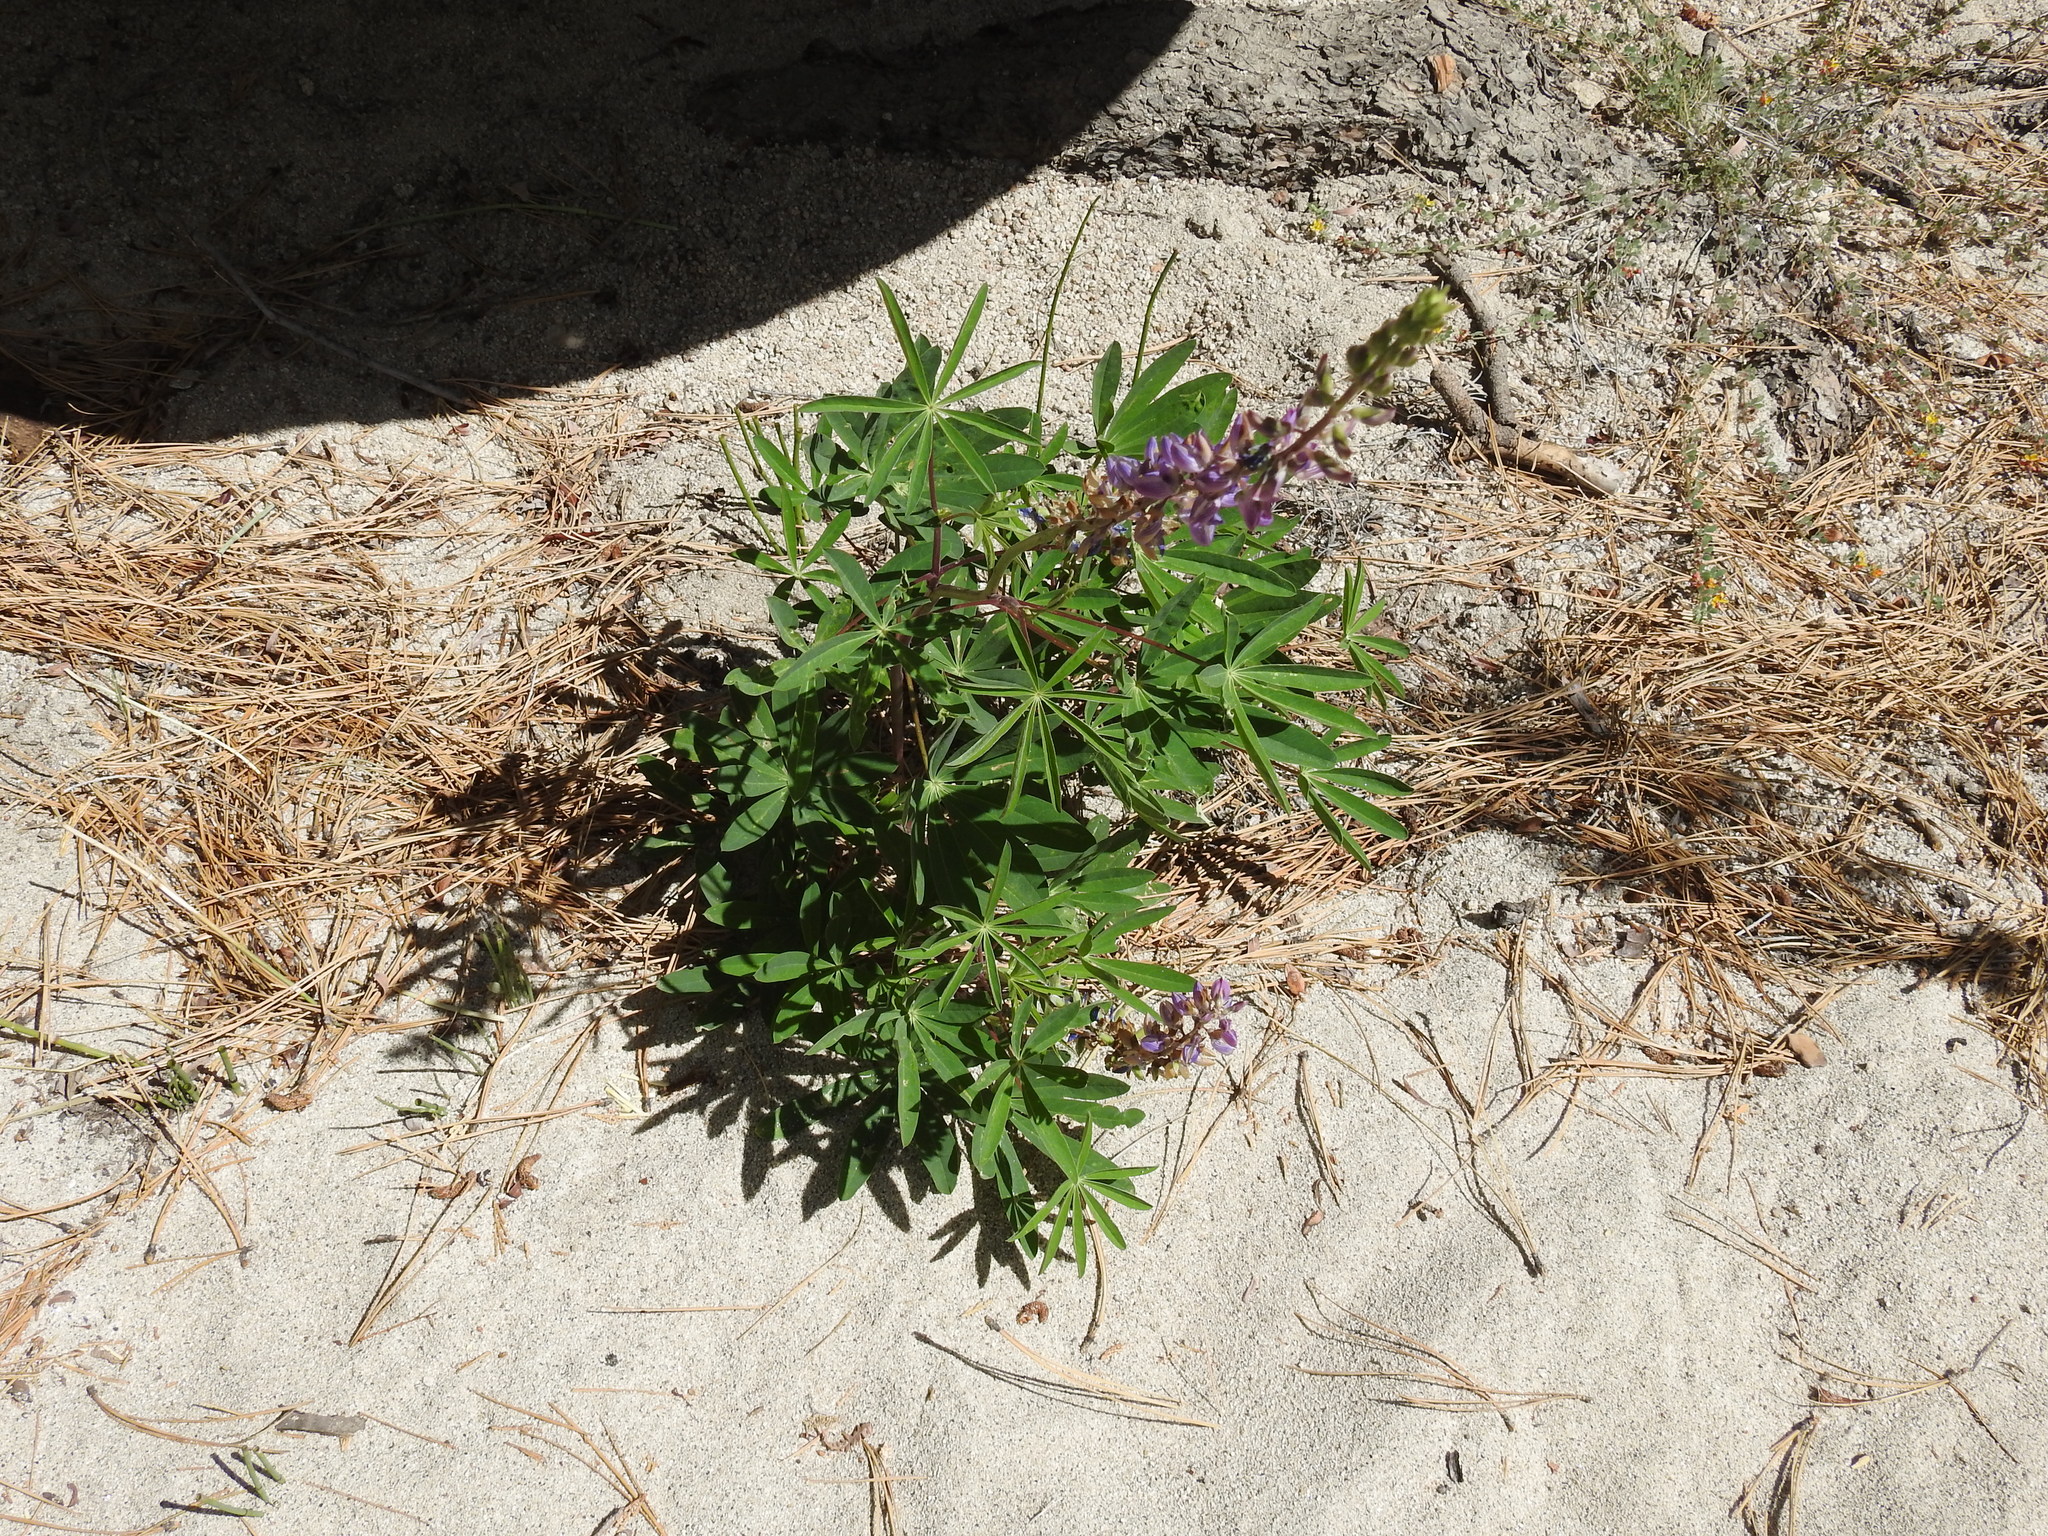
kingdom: Plantae
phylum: Tracheophyta
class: Magnoliopsida
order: Fabales
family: Fabaceae
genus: Lupinus
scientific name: Lupinus latifolius
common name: Broad-leaved lupine
